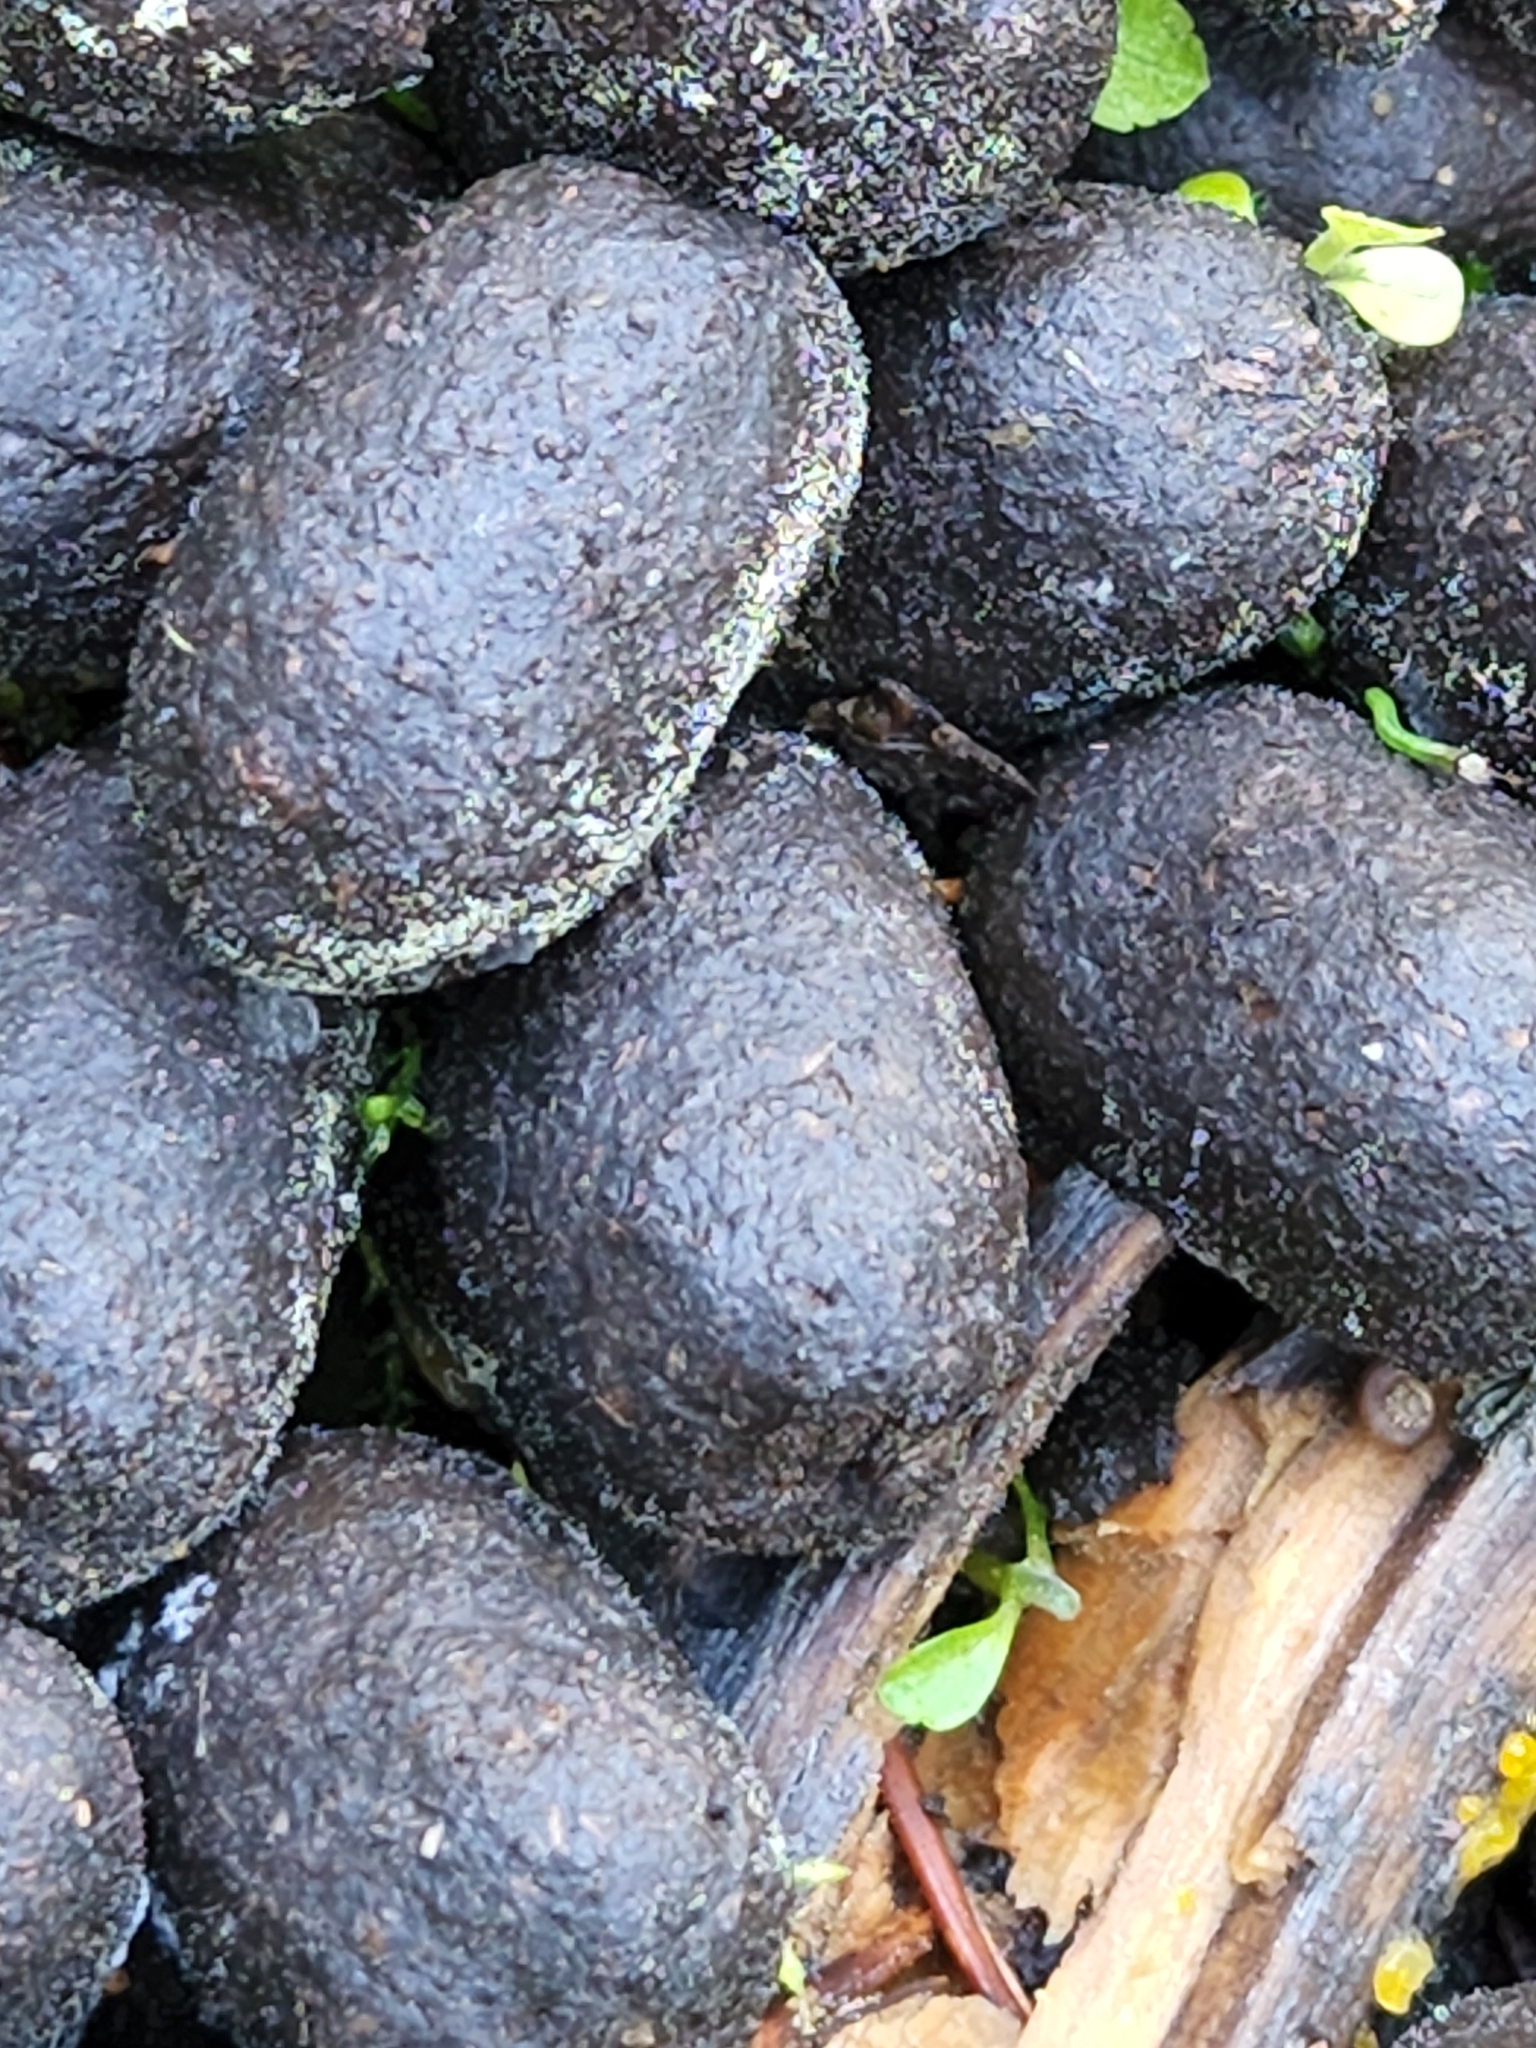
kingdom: Animalia
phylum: Chordata
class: Mammalia
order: Artiodactyla
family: Cervidae
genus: Alces
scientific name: Alces alces
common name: Moose
